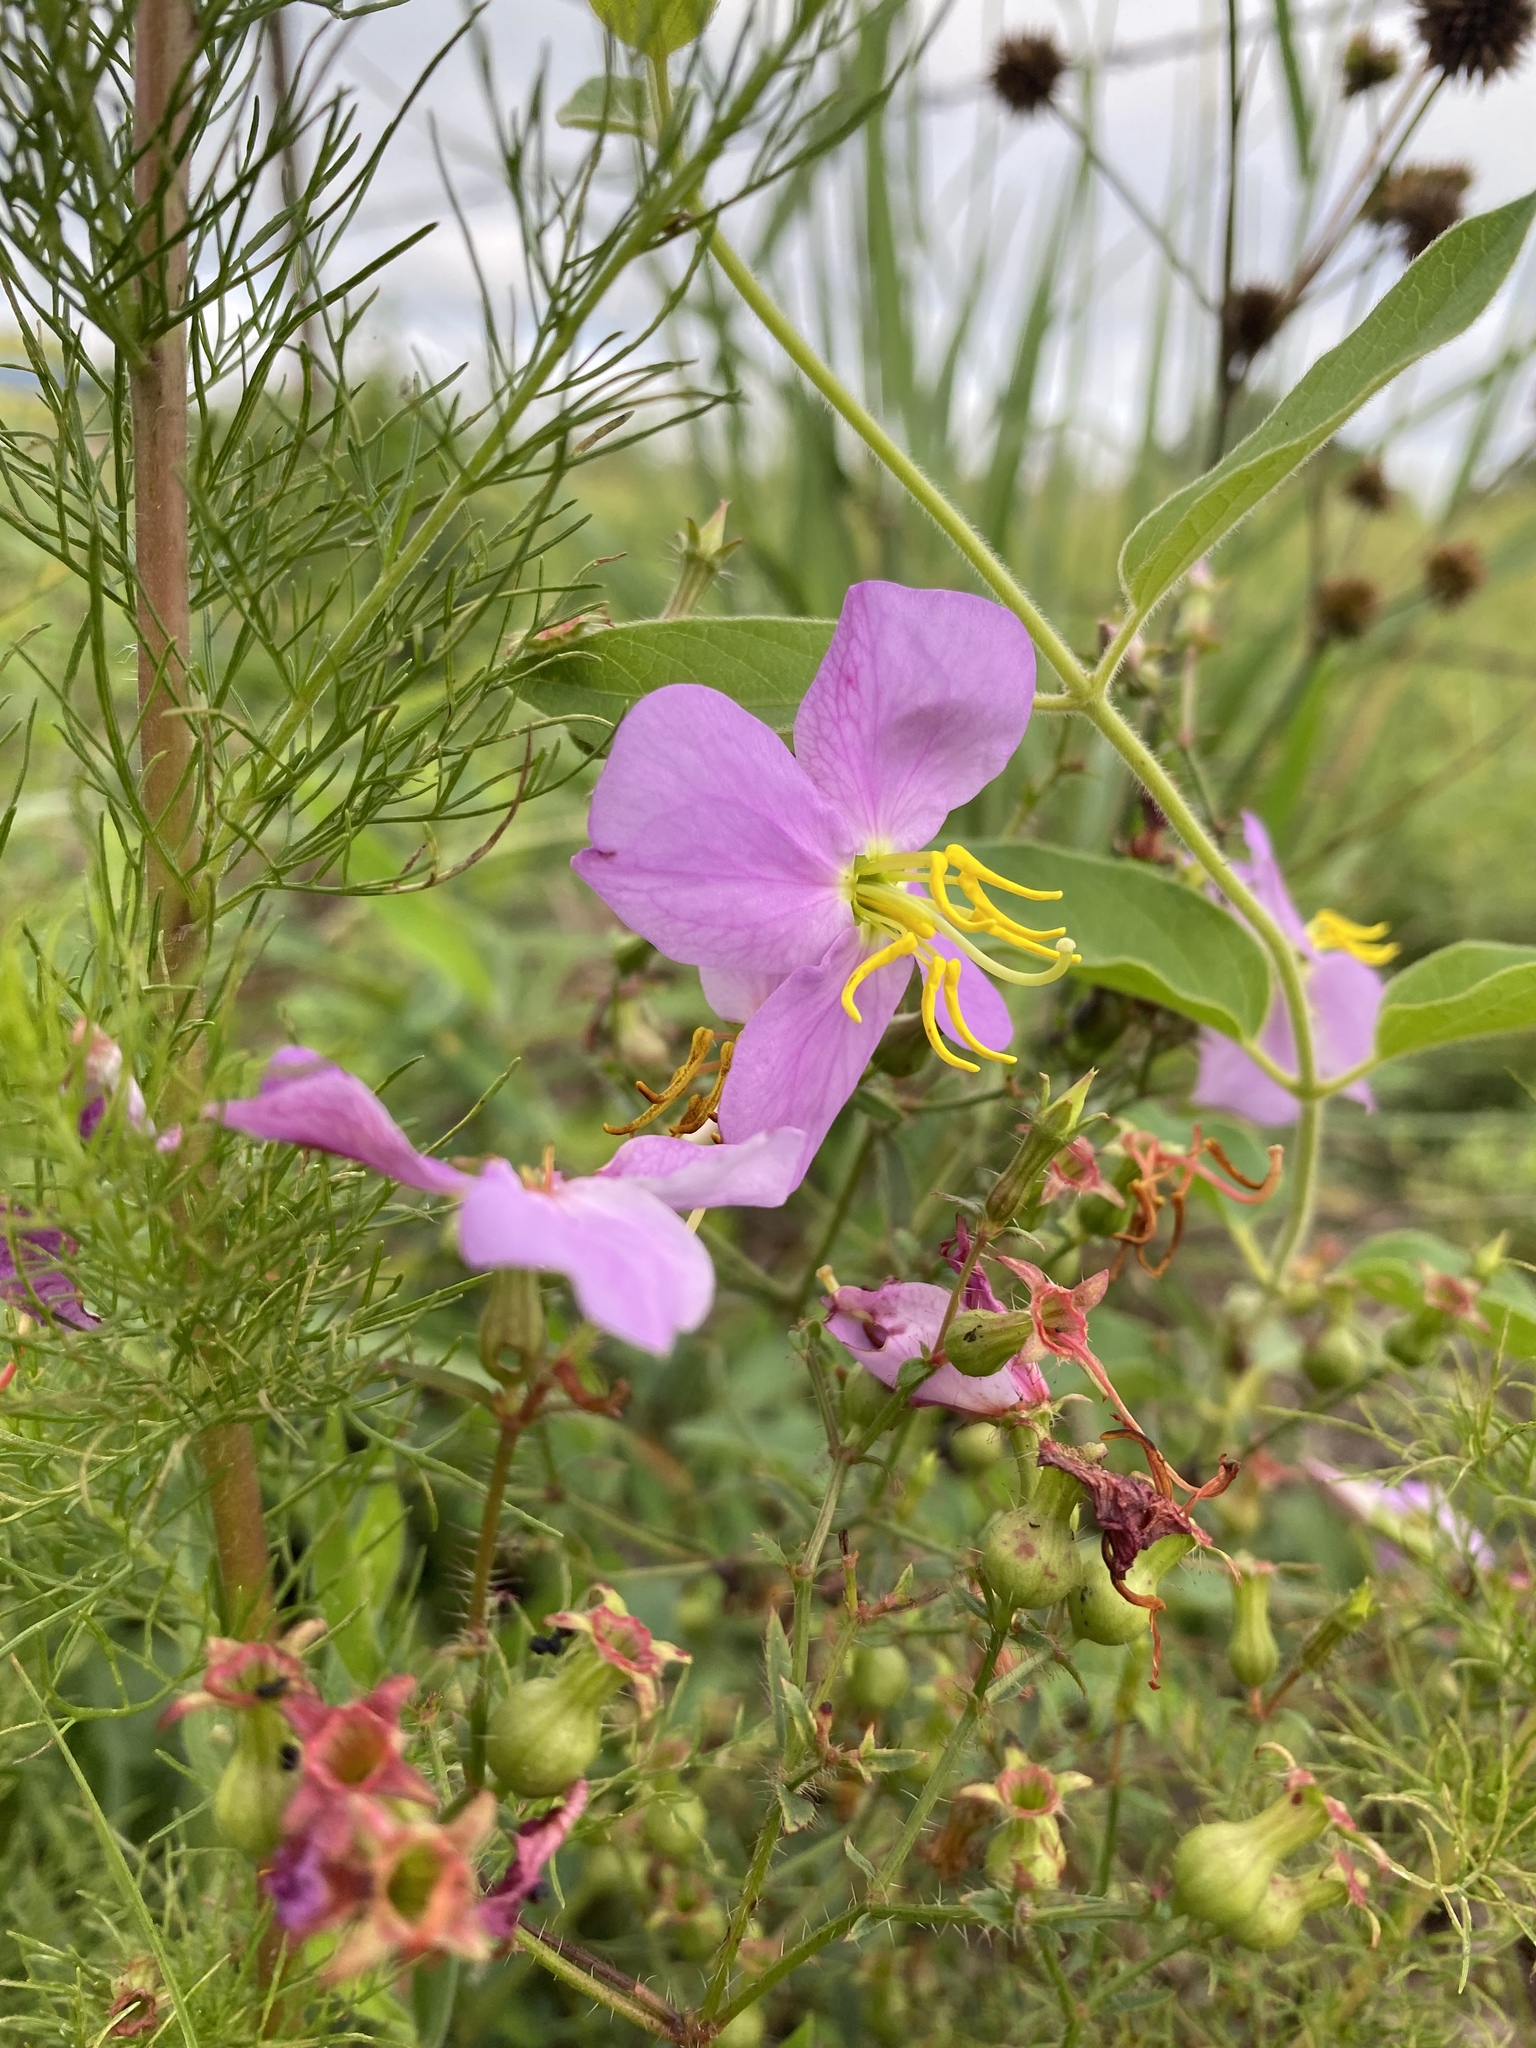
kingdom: Plantae
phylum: Tracheophyta
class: Magnoliopsida
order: Myrtales
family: Melastomataceae
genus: Rhexia
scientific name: Rhexia mariana
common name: Dull meadow-pitcher
